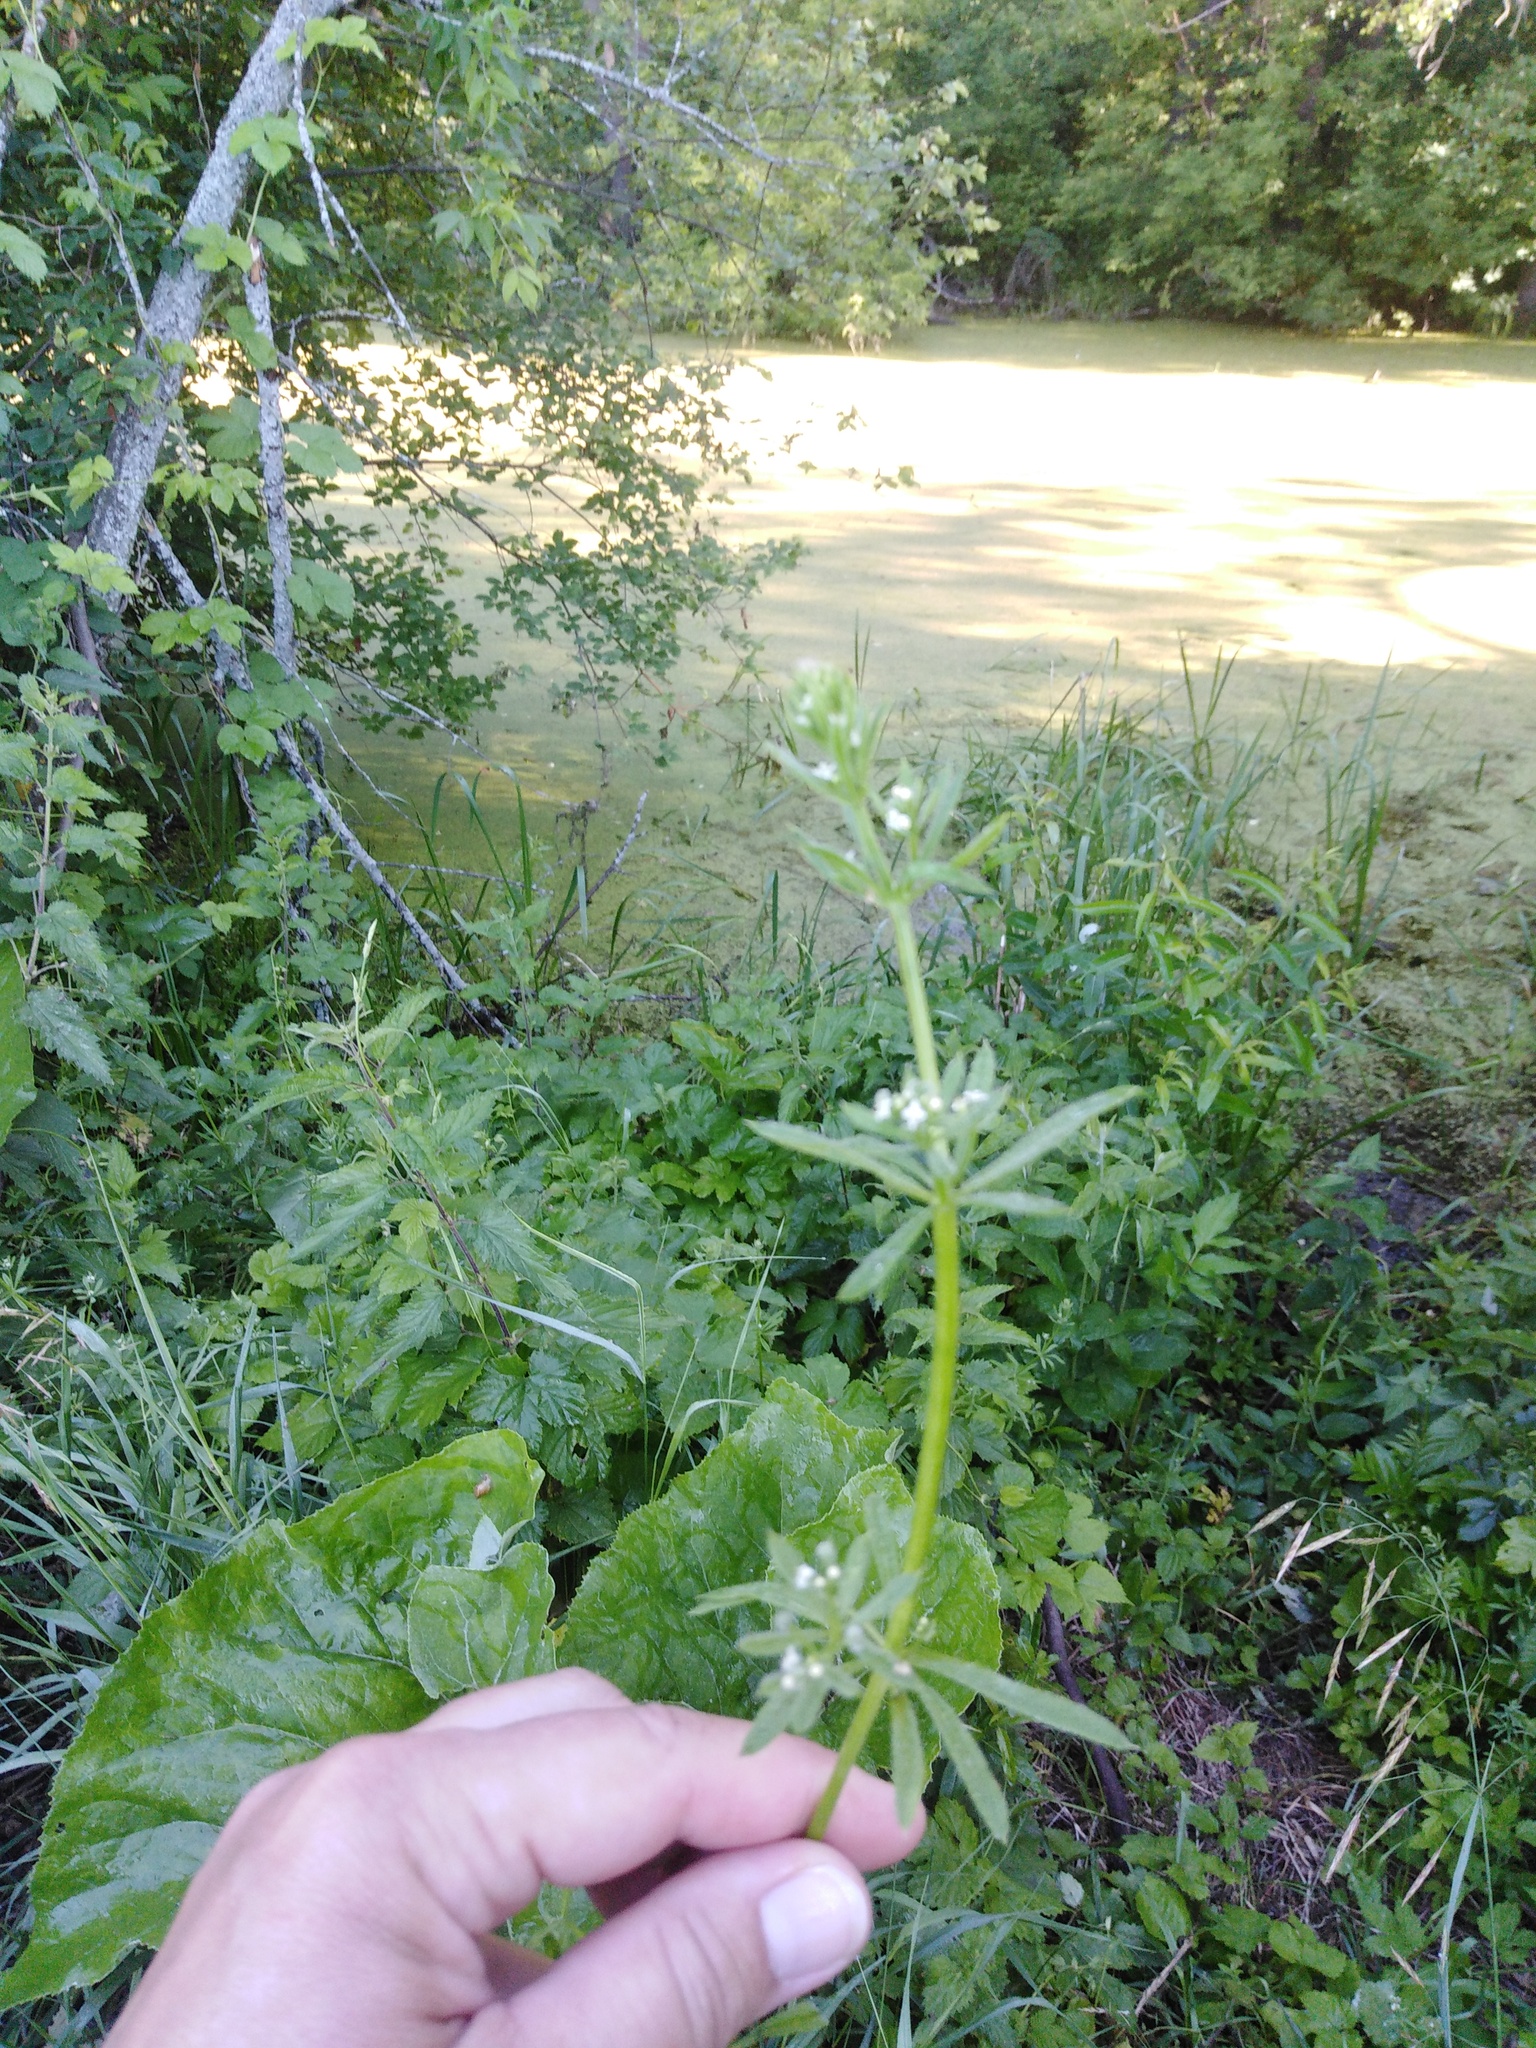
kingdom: Plantae
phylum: Tracheophyta
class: Magnoliopsida
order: Gentianales
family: Rubiaceae
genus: Galium
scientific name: Galium aparine
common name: Cleavers
